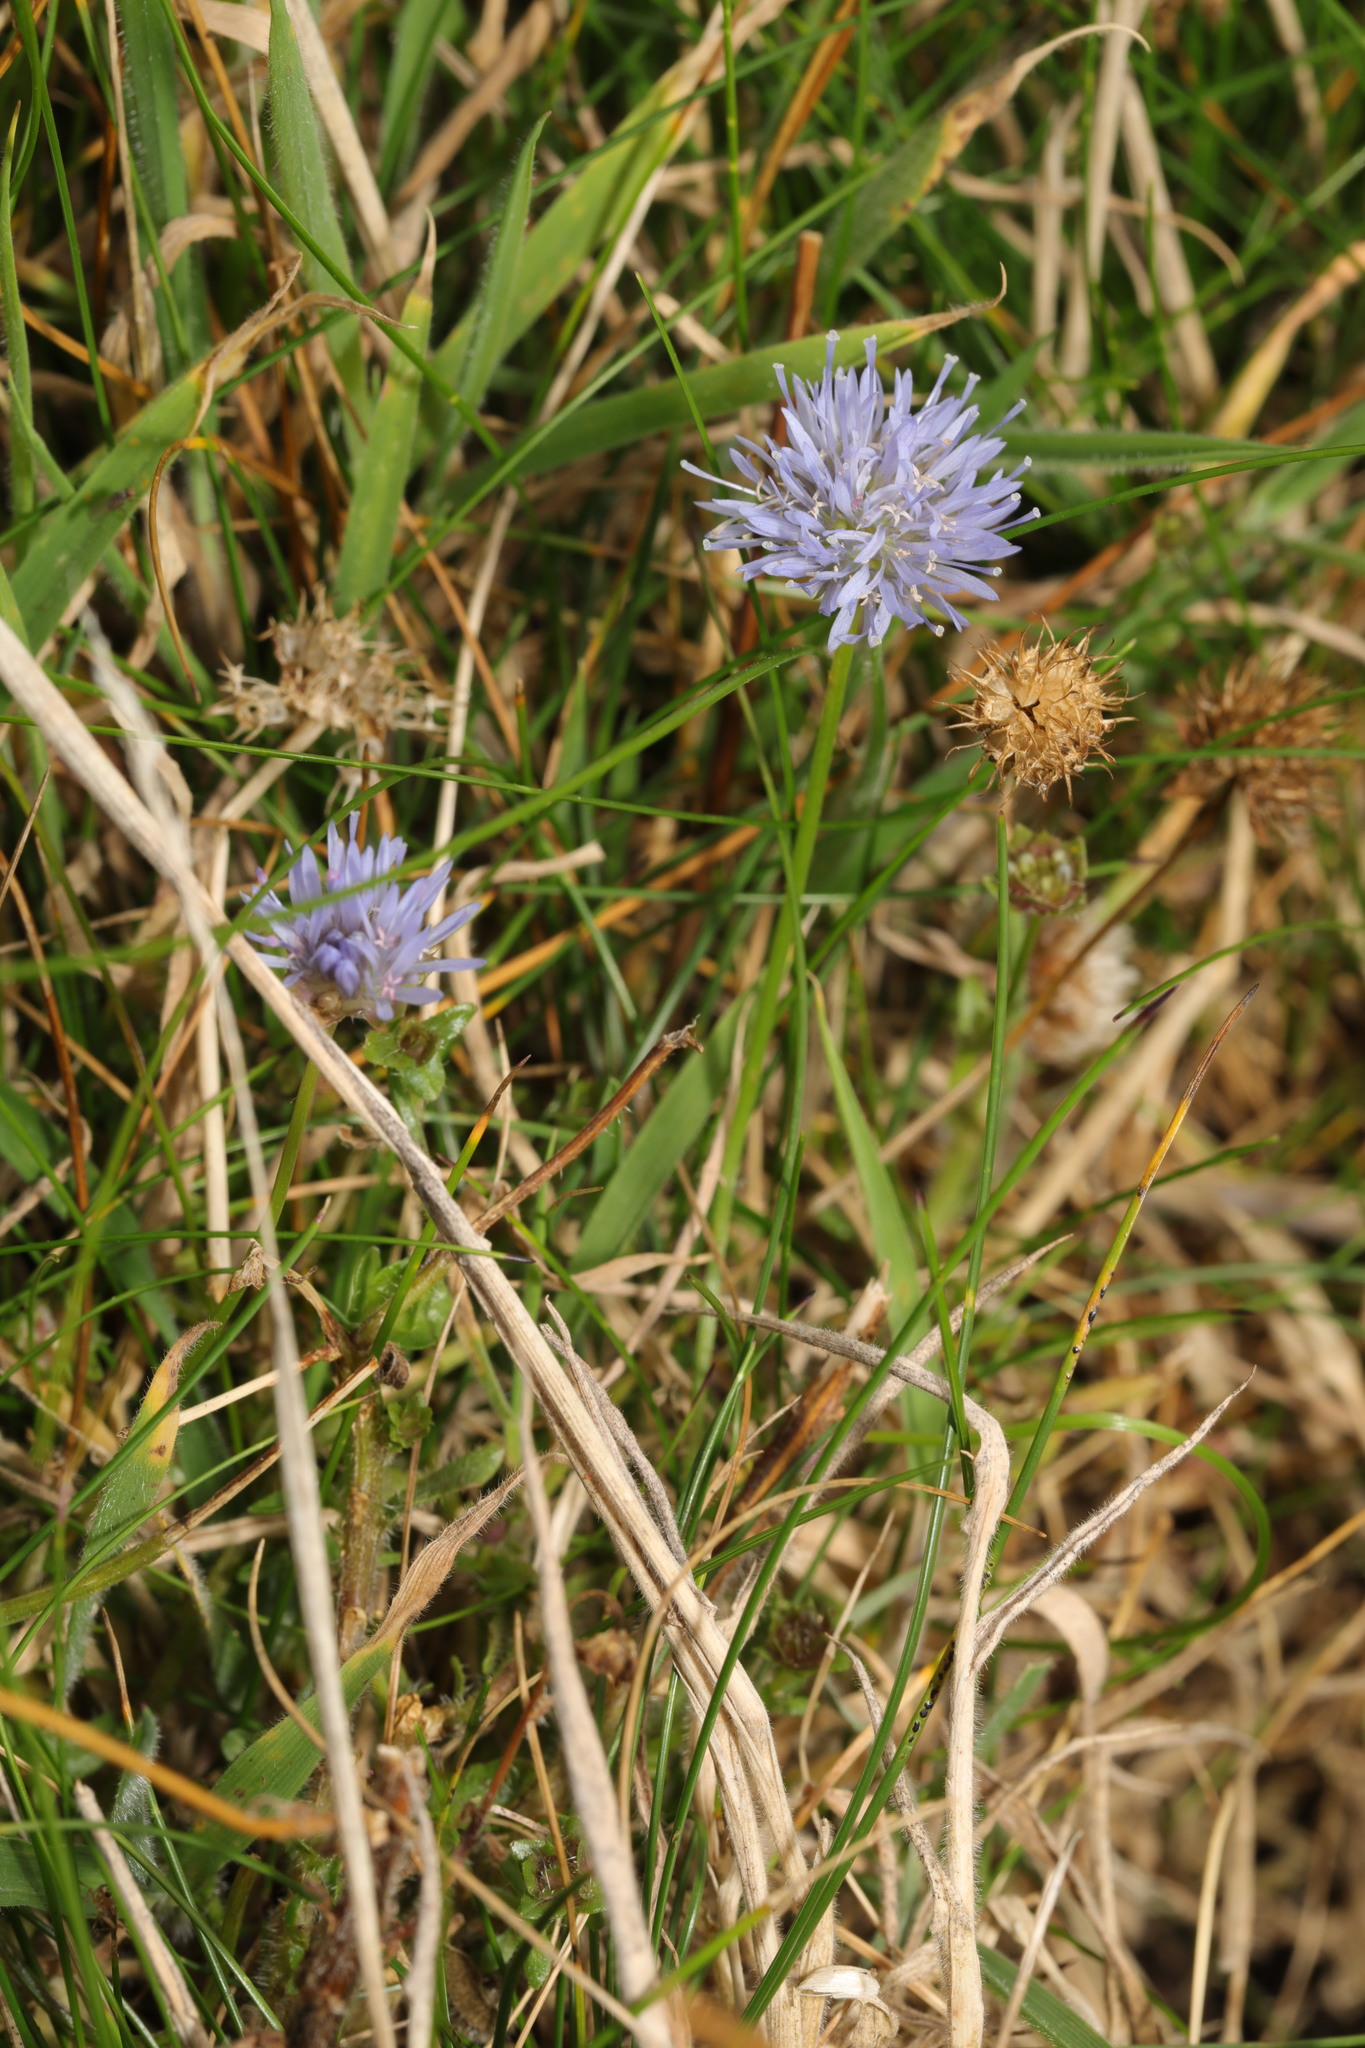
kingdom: Plantae
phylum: Tracheophyta
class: Magnoliopsida
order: Asterales
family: Campanulaceae
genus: Jasione
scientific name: Jasione montana
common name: Sheep's-bit
